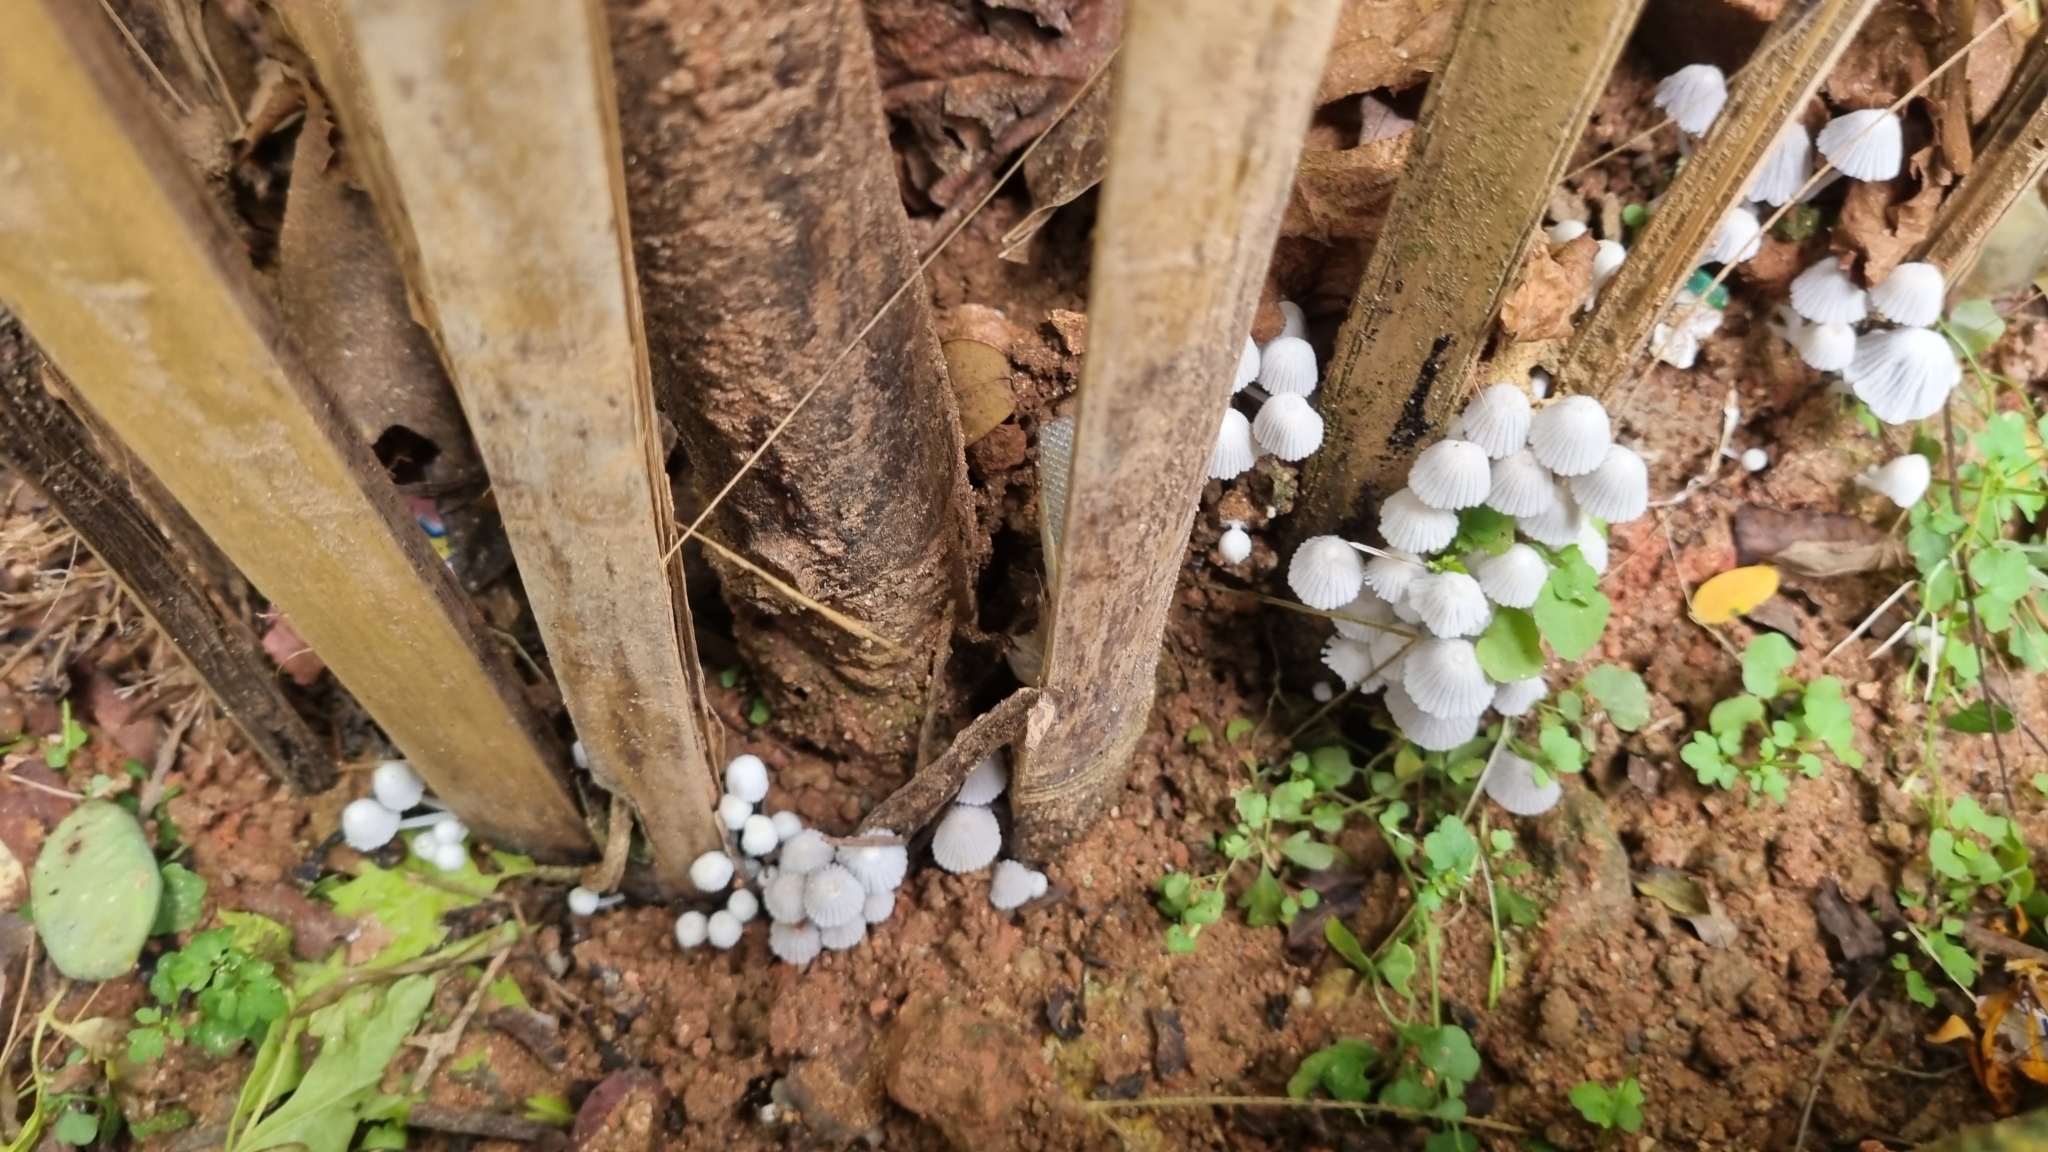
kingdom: Fungi
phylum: Basidiomycota
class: Agaricomycetes
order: Agaricales
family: Psathyrellaceae
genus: Coprinellus
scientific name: Coprinellus disseminatus
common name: Fairies' bonnets
